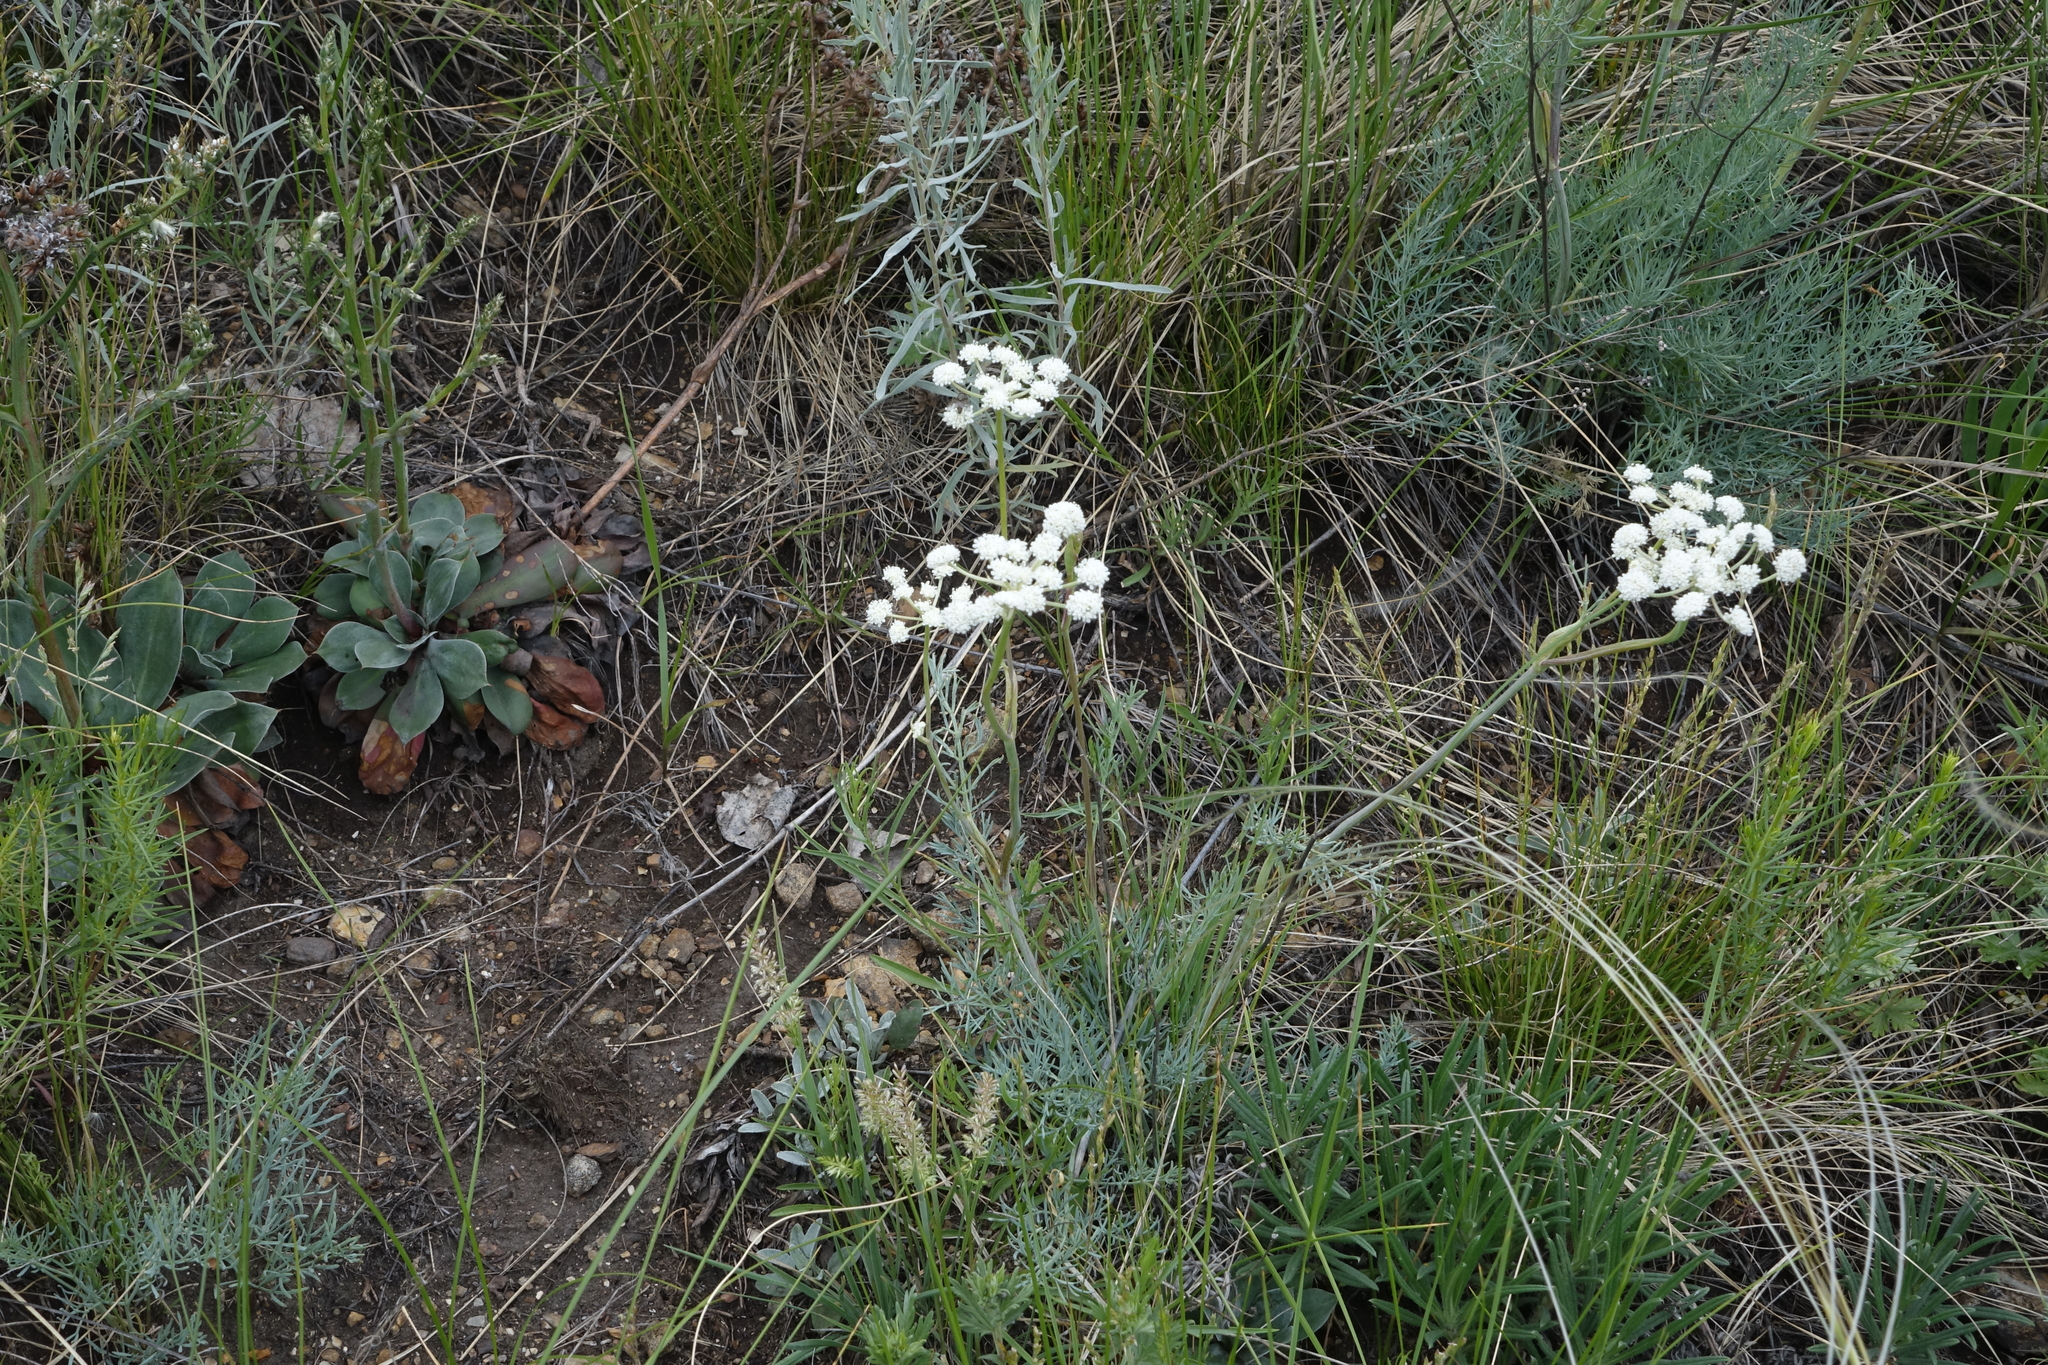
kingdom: Plantae
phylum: Tracheophyta
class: Magnoliopsida
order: Apiales
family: Apiaceae
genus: Seseli
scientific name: Seseli ledebourii
